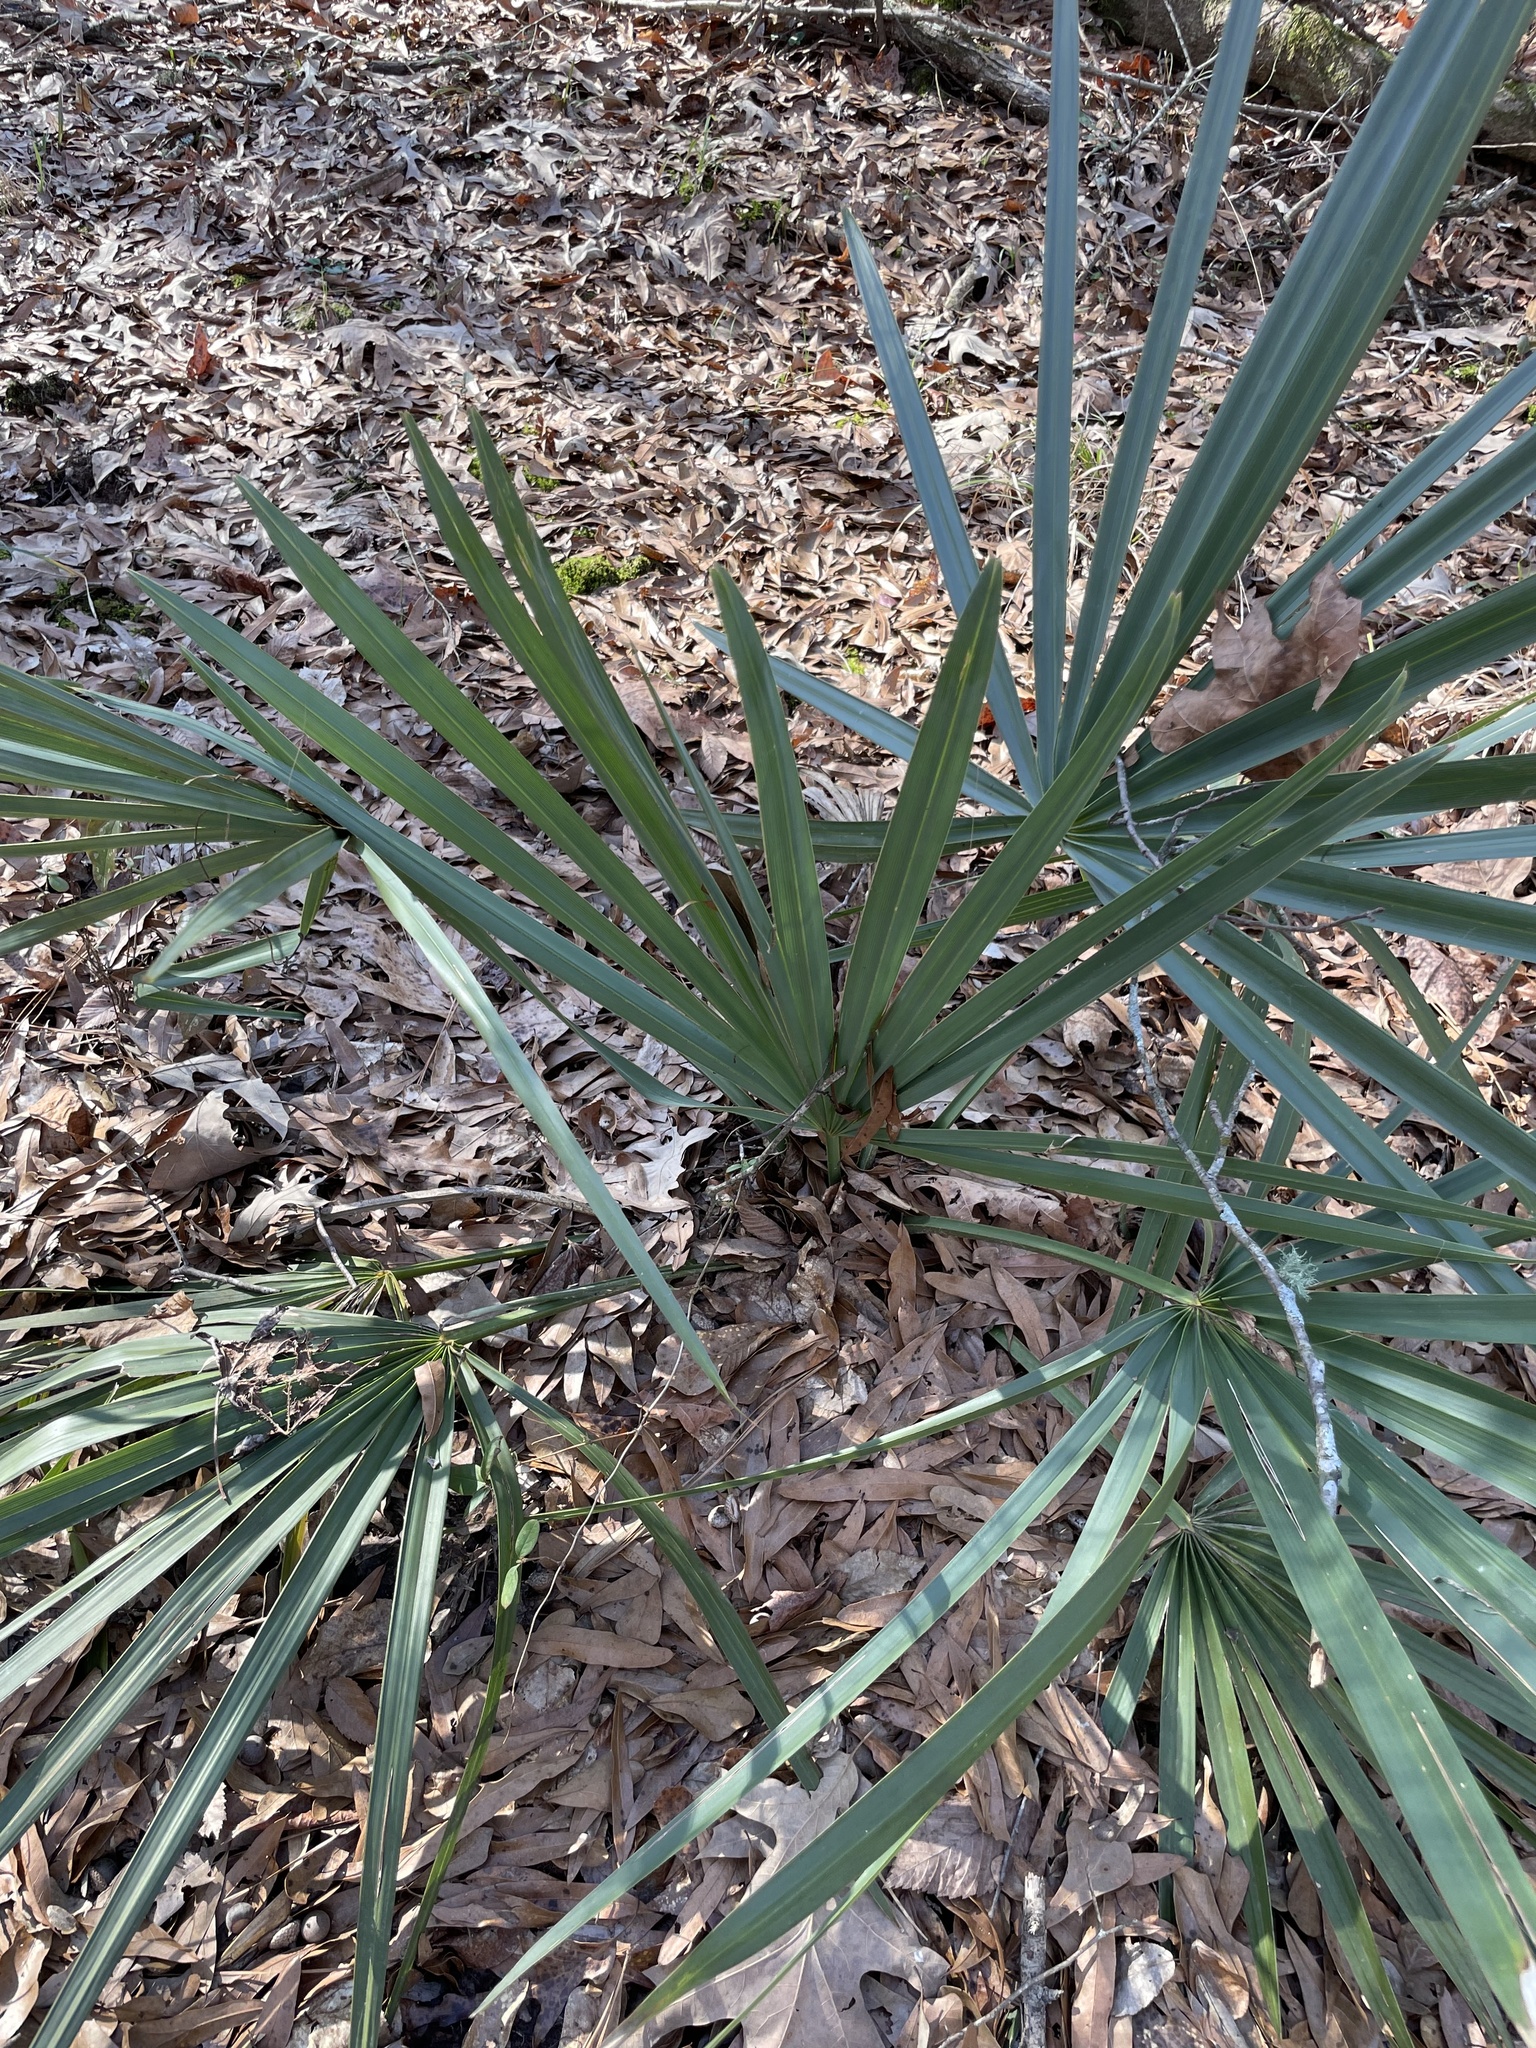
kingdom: Plantae
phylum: Tracheophyta
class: Liliopsida
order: Arecales
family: Arecaceae
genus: Sabal
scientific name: Sabal minor
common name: Dwarf palmetto
